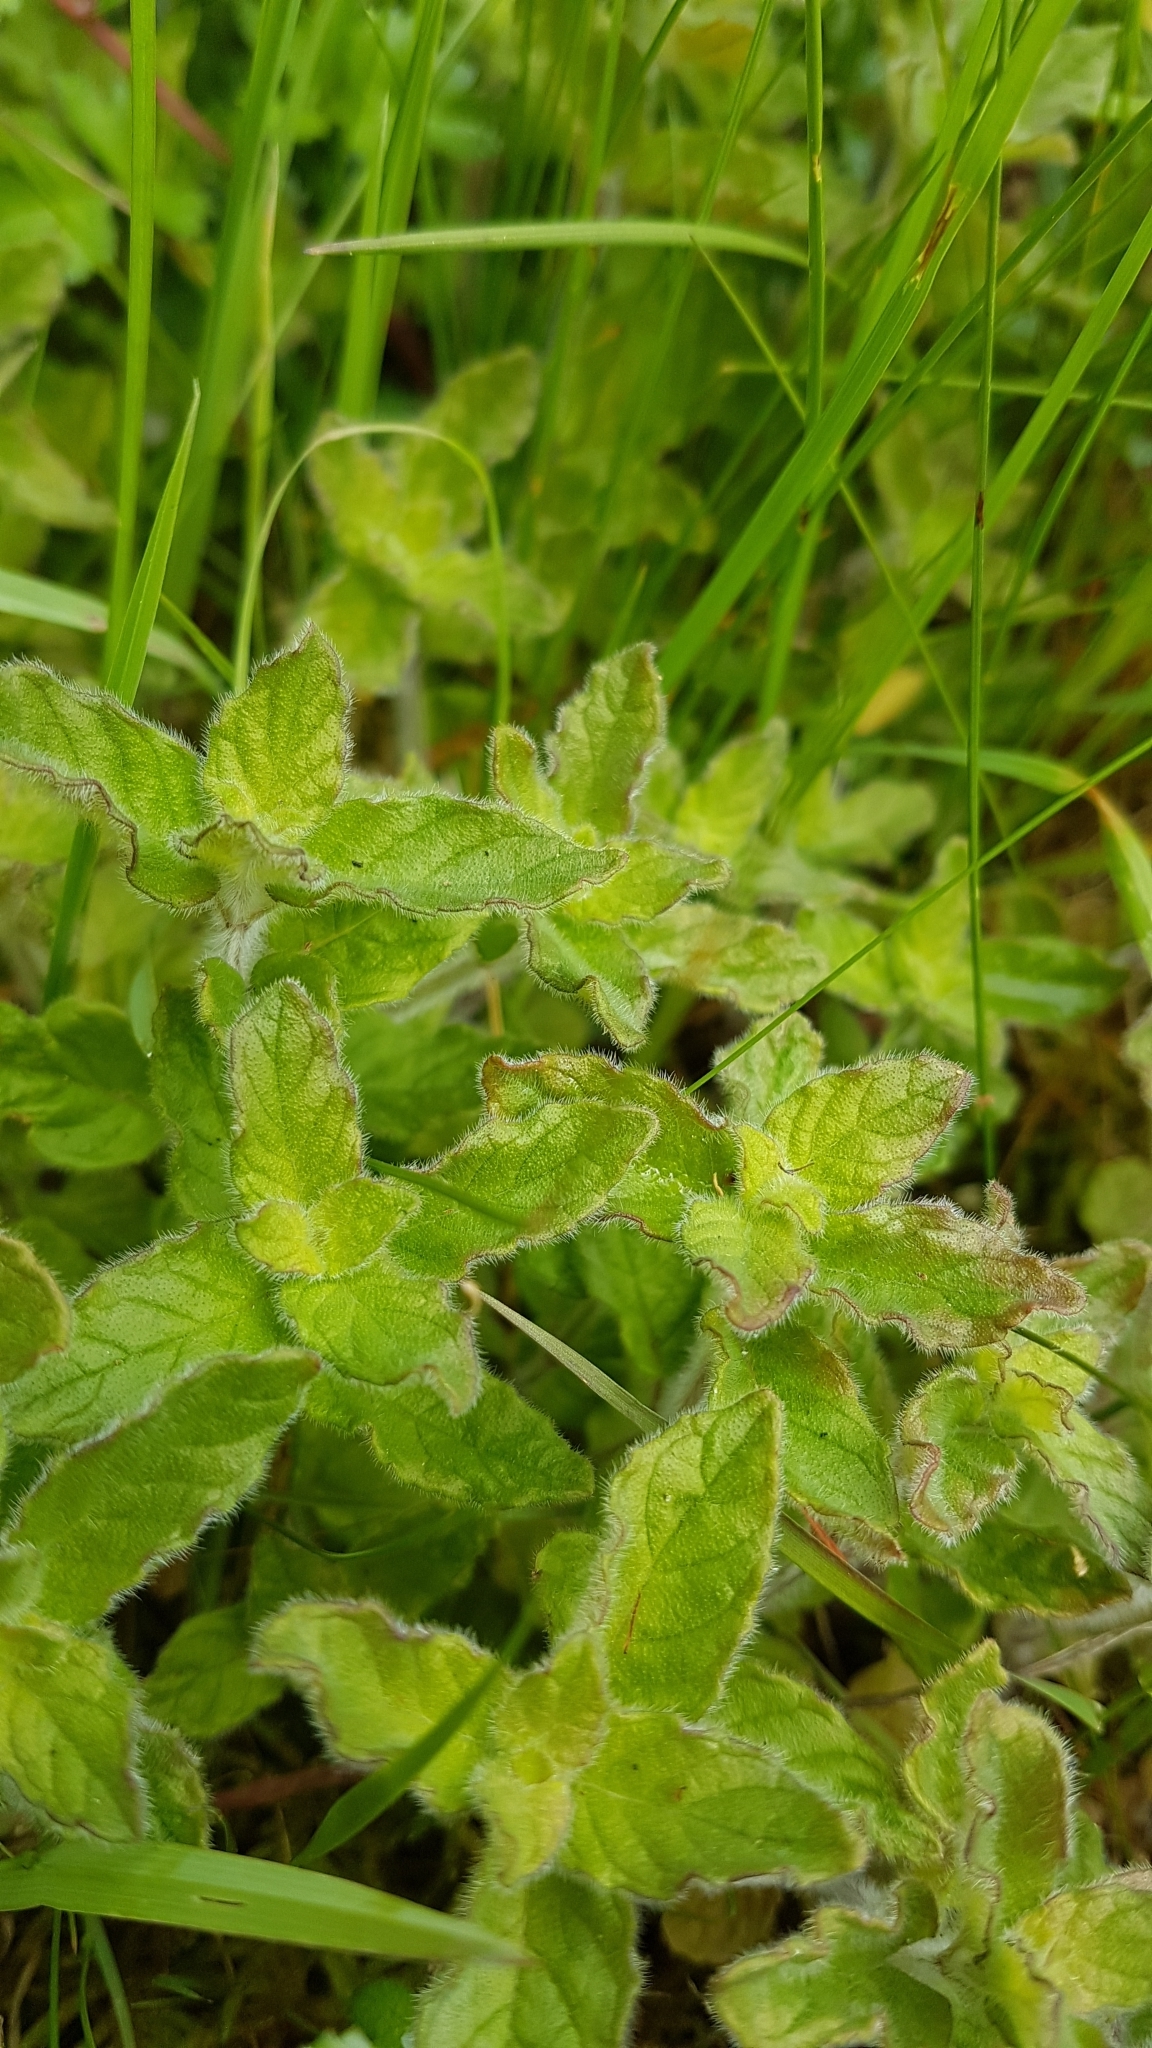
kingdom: Plantae
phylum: Tracheophyta
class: Magnoliopsida
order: Lamiales
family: Lamiaceae
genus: Clinopodium
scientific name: Clinopodium vulgare
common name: Wild basil
